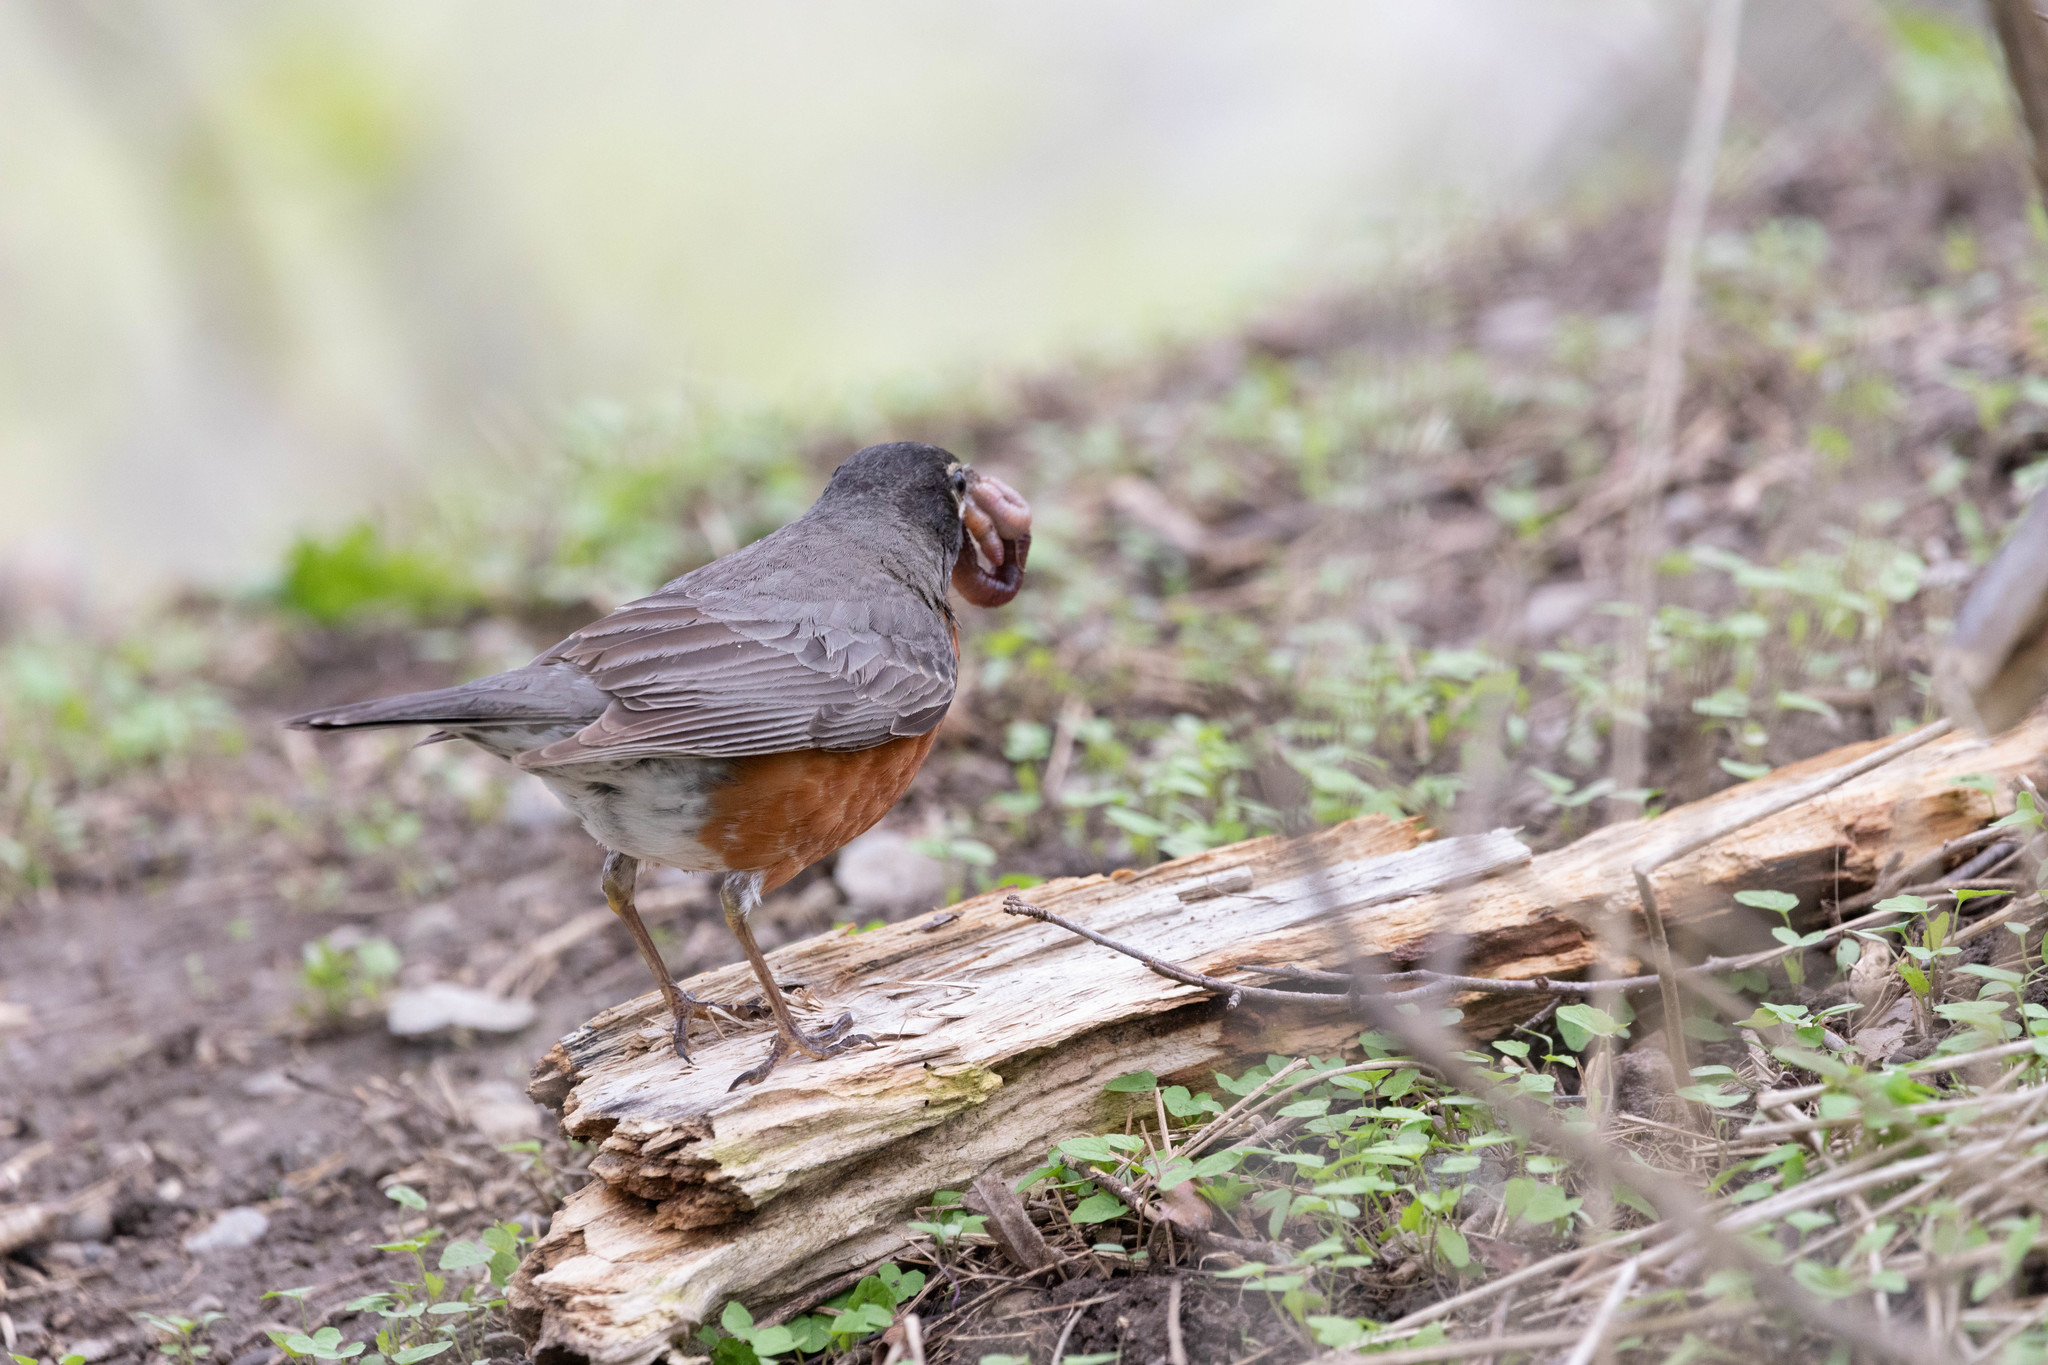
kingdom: Animalia
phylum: Chordata
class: Aves
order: Passeriformes
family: Turdidae
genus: Turdus
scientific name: Turdus migratorius
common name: American robin
